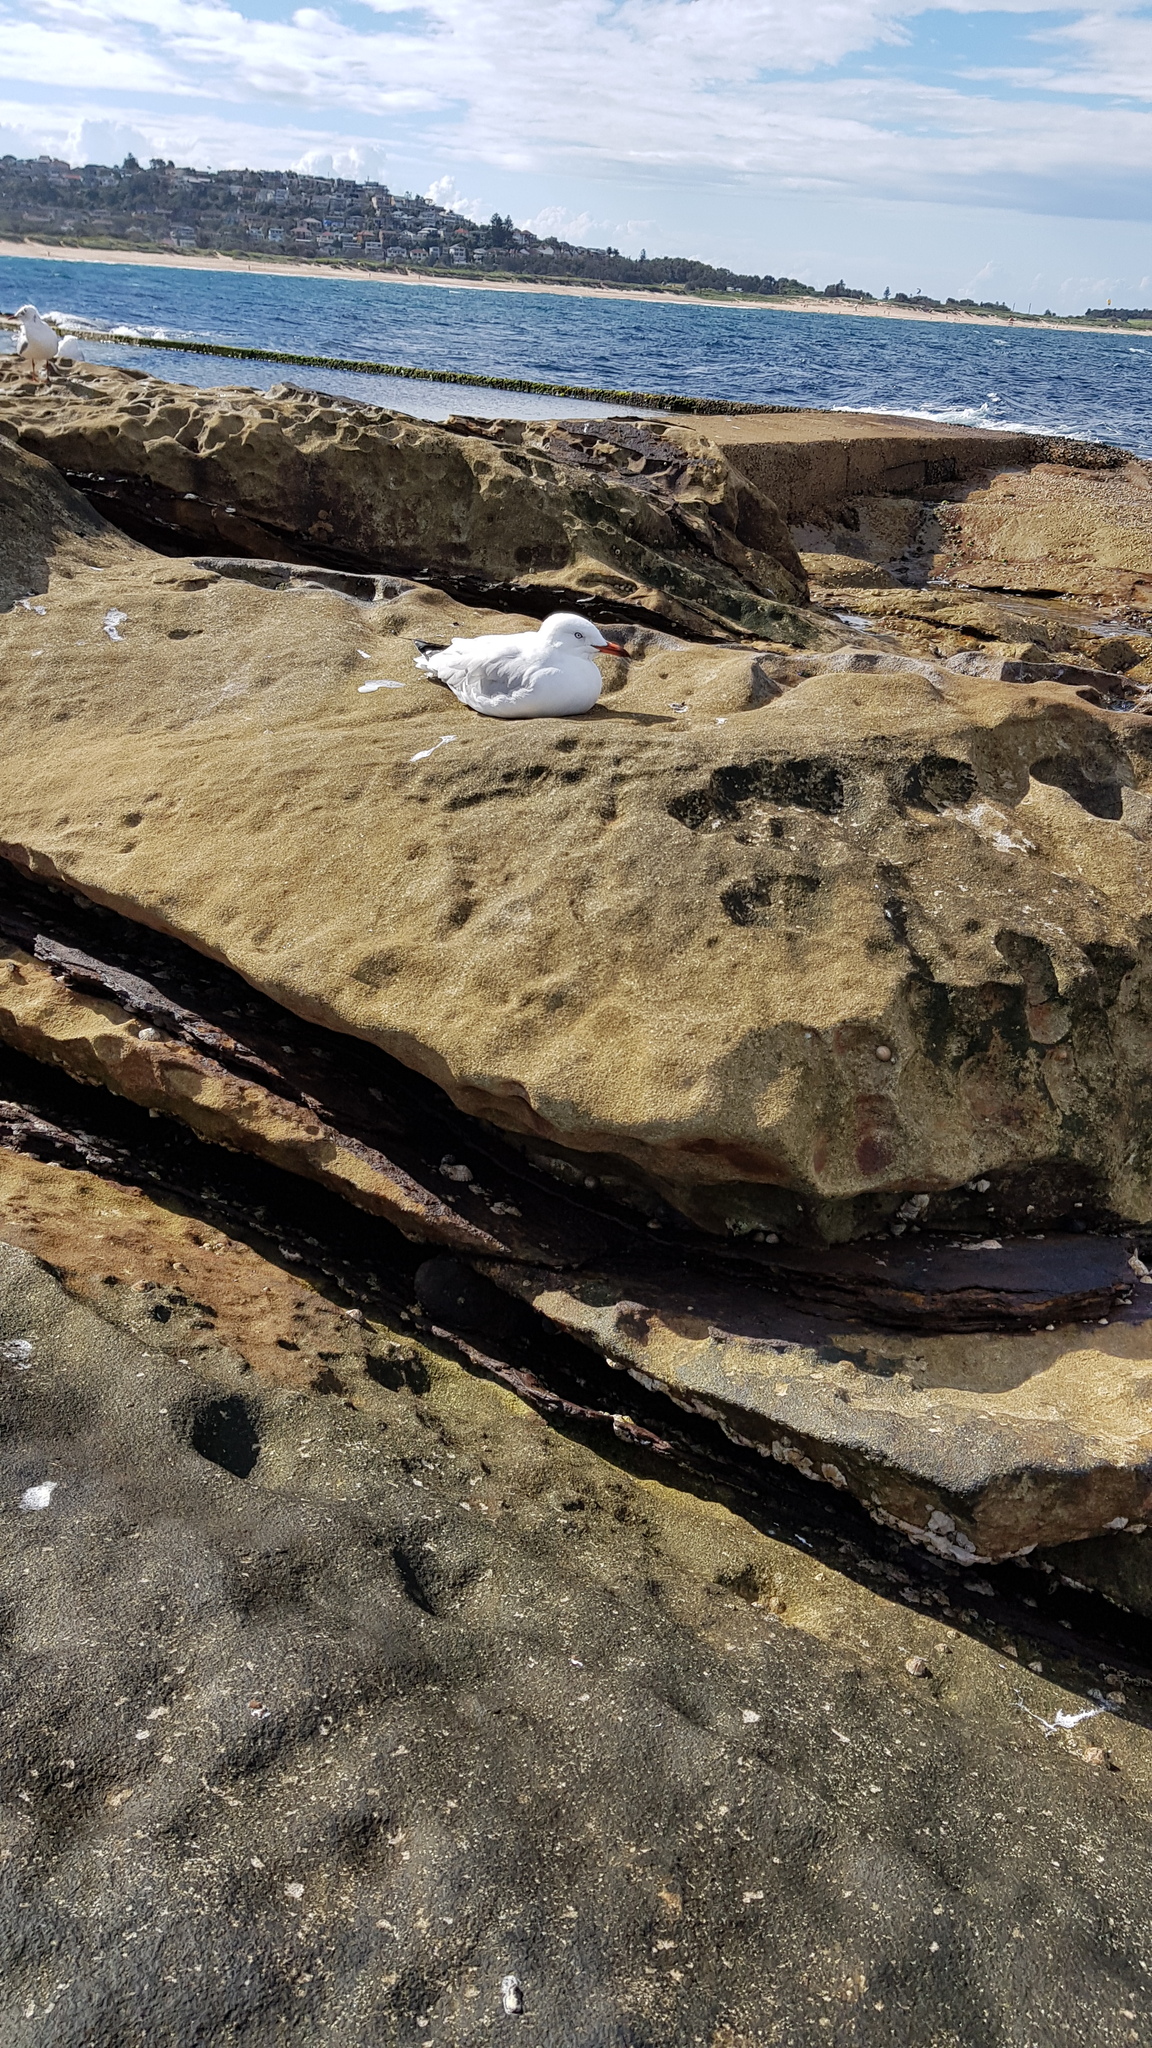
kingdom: Animalia
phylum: Chordata
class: Aves
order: Charadriiformes
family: Laridae
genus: Chroicocephalus
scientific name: Chroicocephalus novaehollandiae
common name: Silver gull
